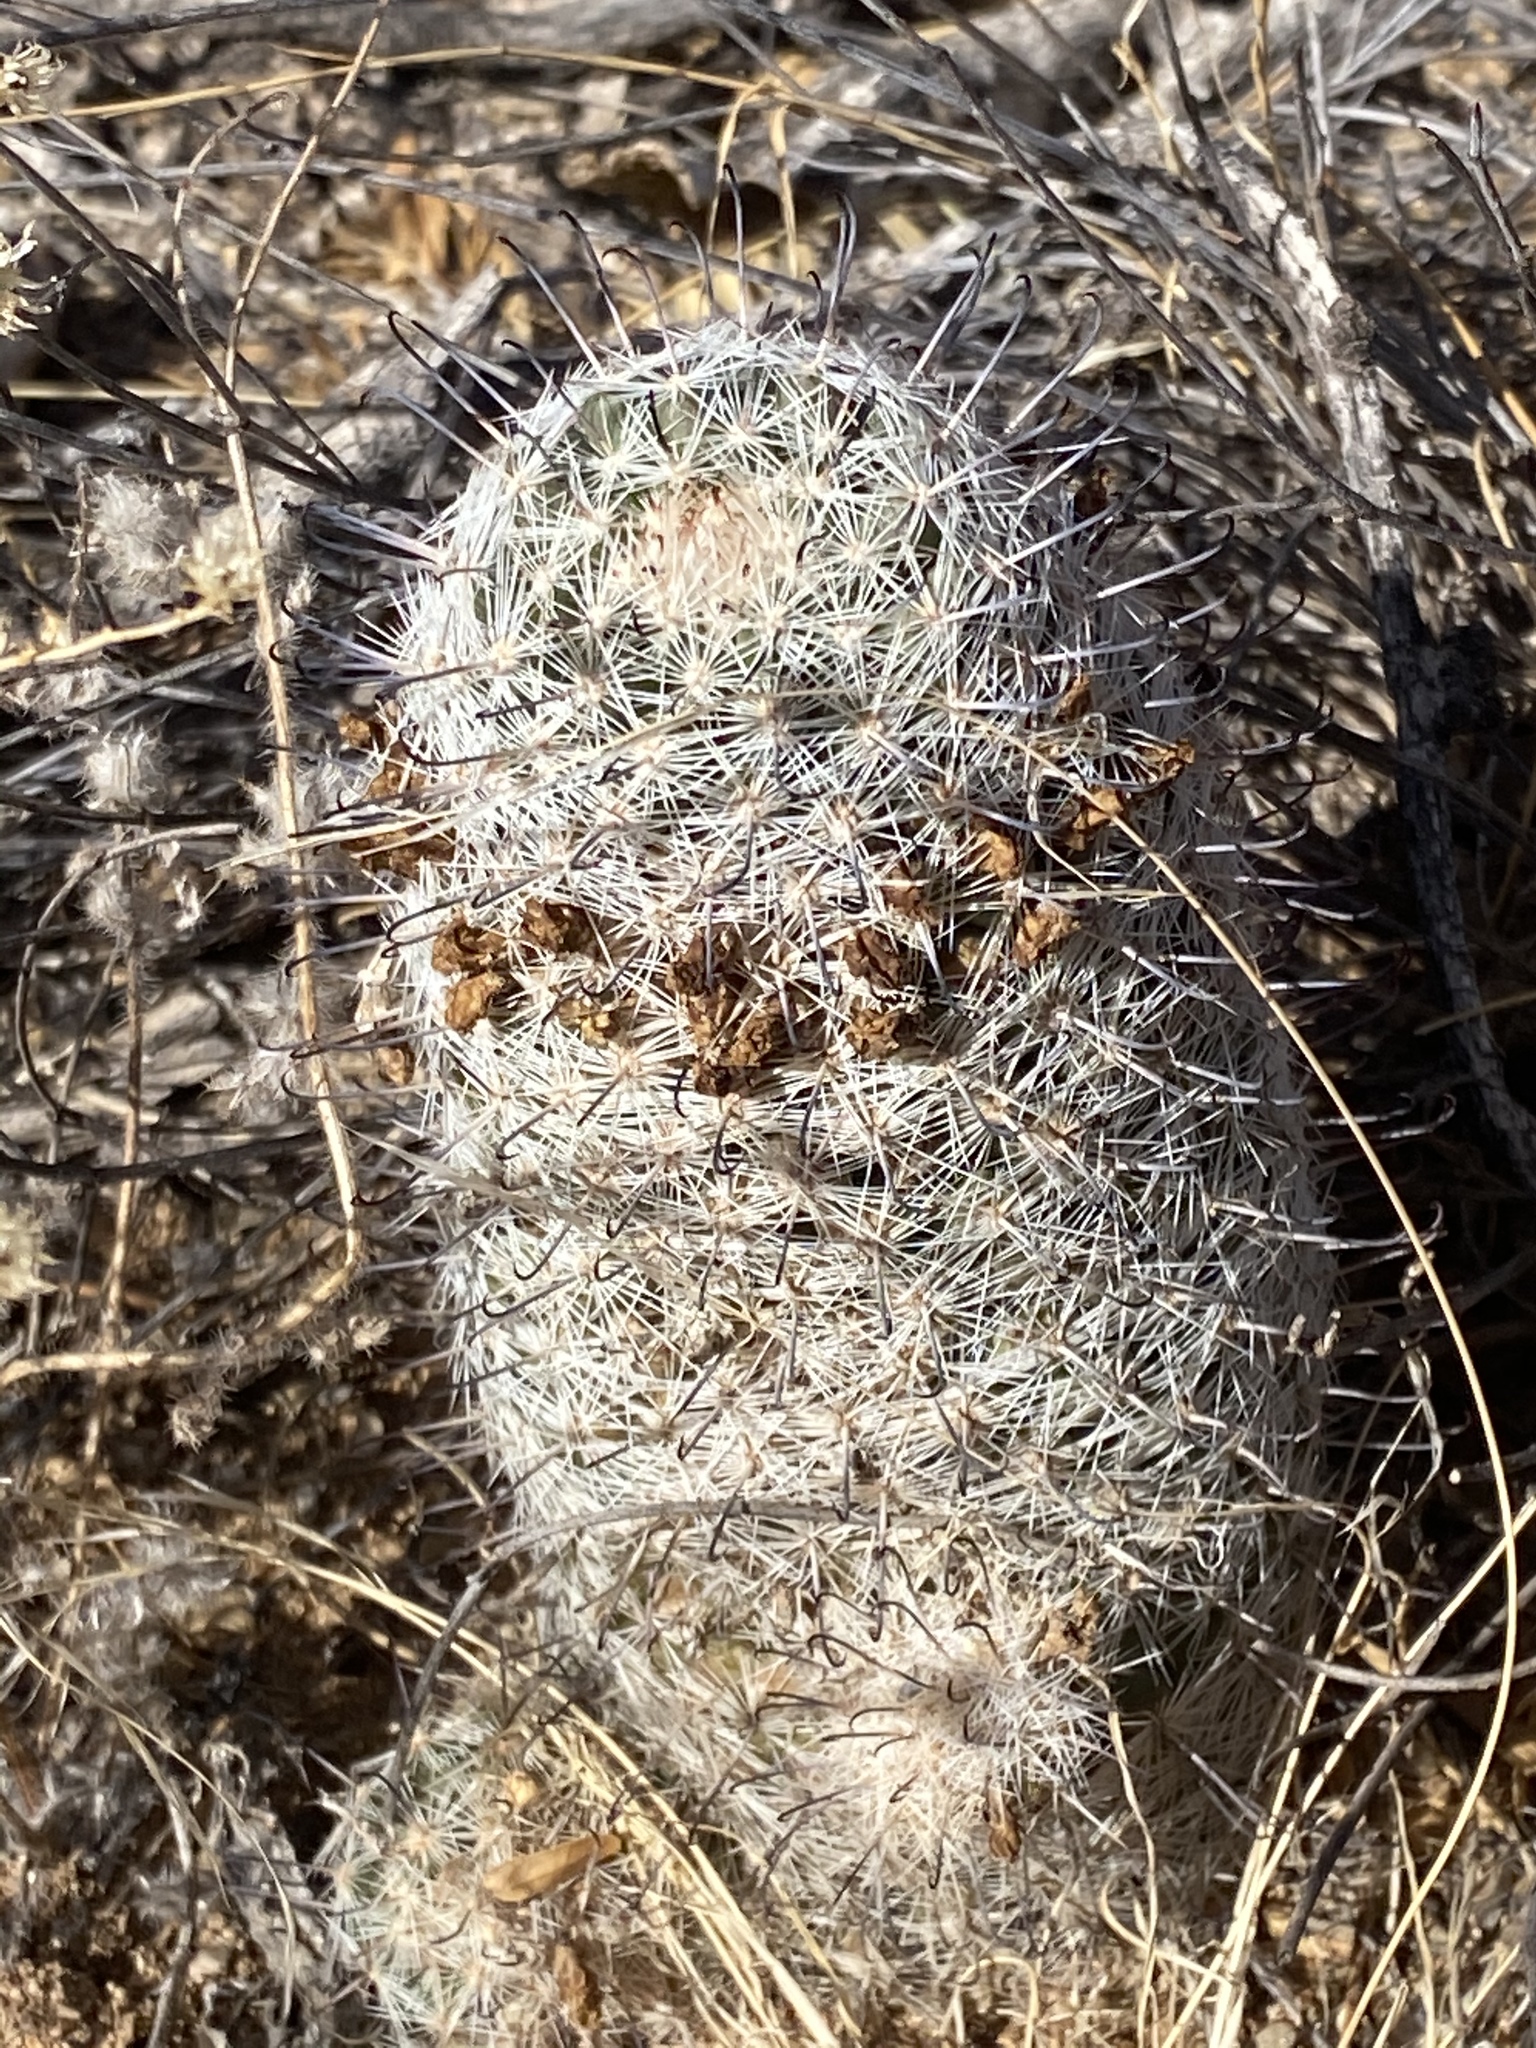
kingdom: Plantae
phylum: Tracheophyta
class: Magnoliopsida
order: Caryophyllales
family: Cactaceae
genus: Cochemiea
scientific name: Cochemiea grahamii
